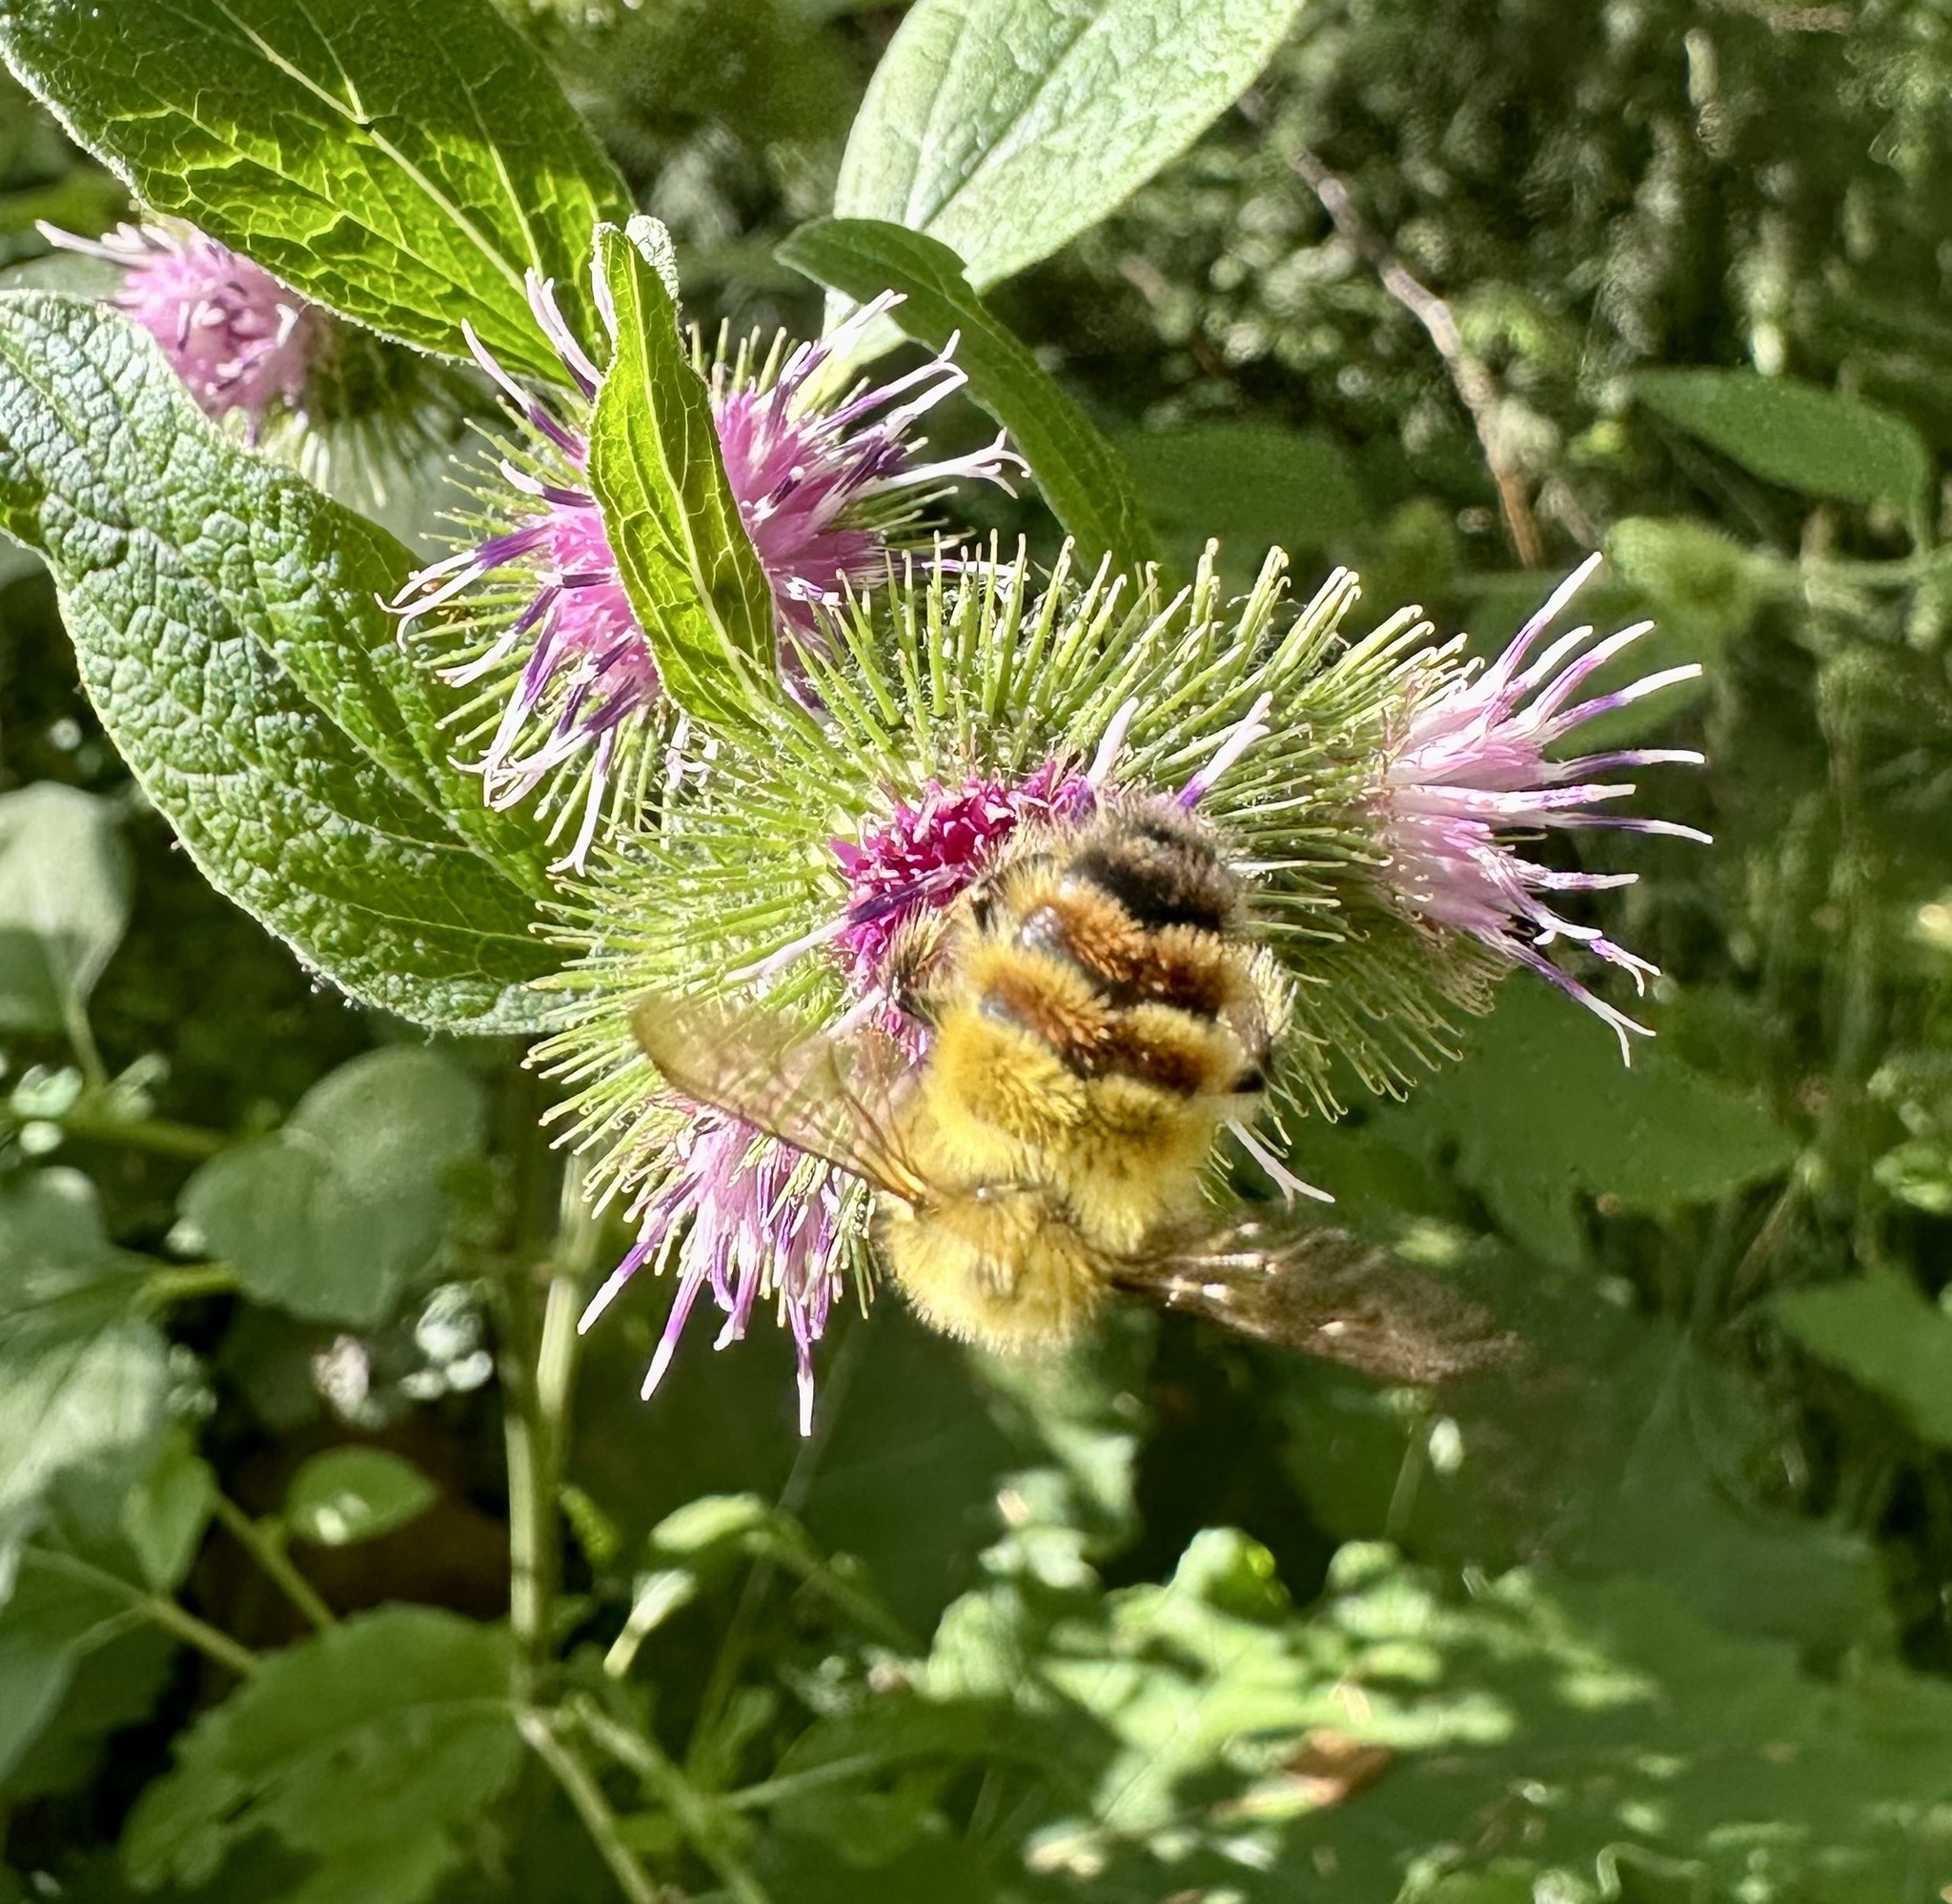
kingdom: Animalia
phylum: Arthropoda
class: Insecta
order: Hymenoptera
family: Apidae
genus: Bombus
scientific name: Bombus flavifrons
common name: Yellow head bumble bee
